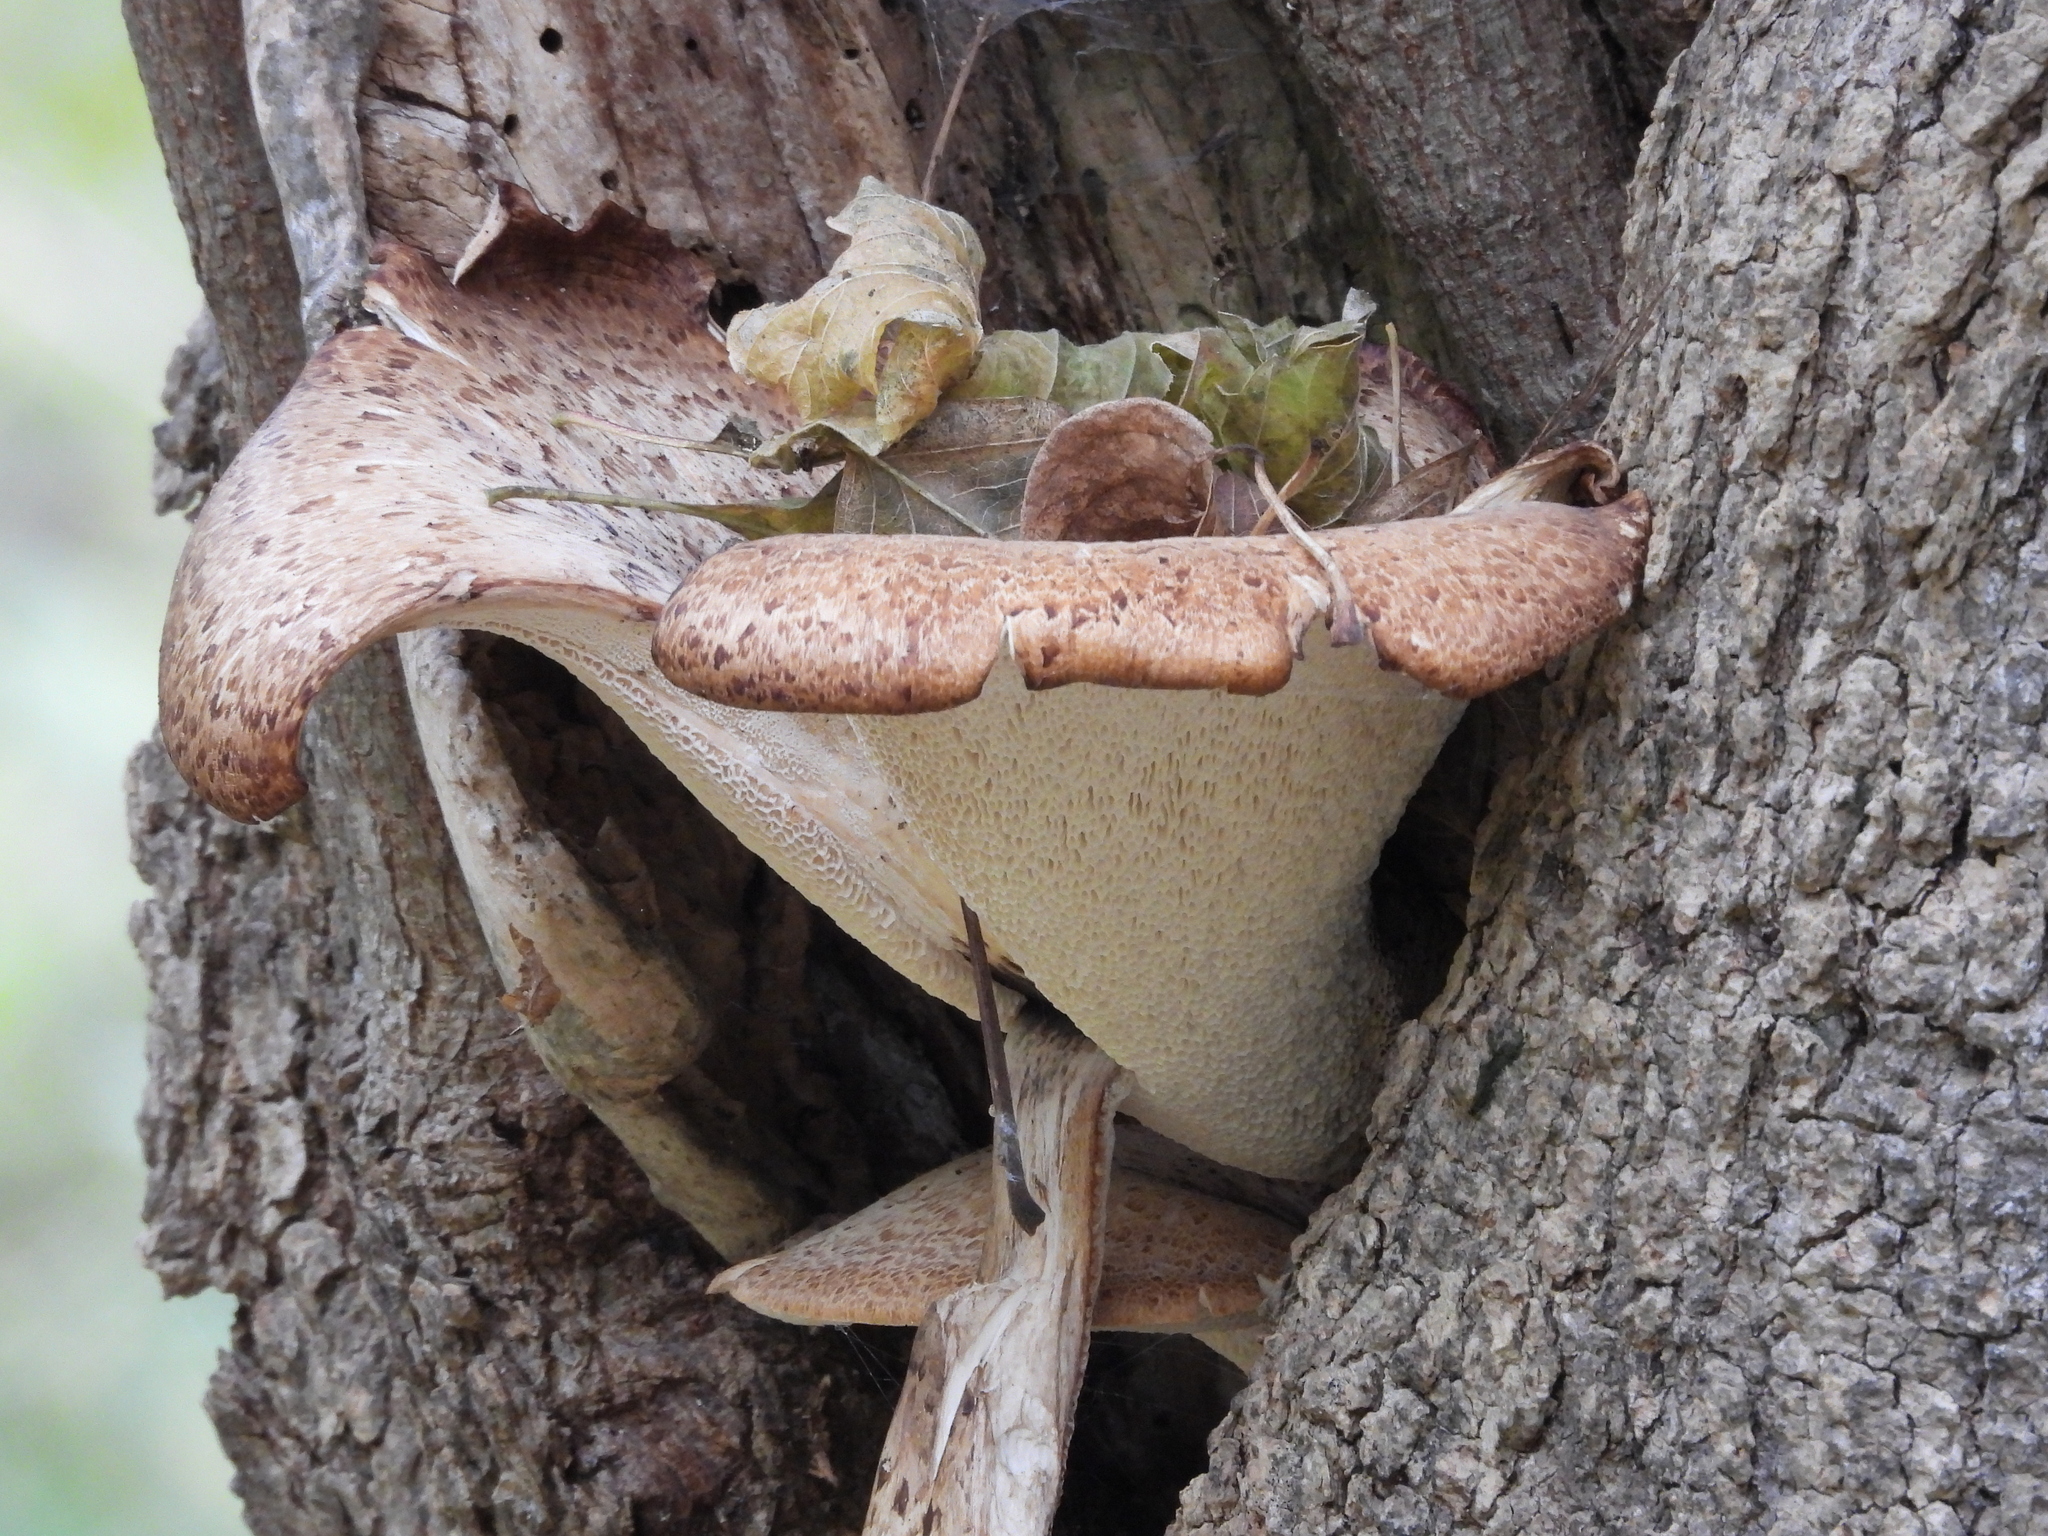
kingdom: Fungi
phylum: Basidiomycota
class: Agaricomycetes
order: Polyporales
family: Polyporaceae
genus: Cerioporus
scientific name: Cerioporus squamosus
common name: Dryad's saddle
